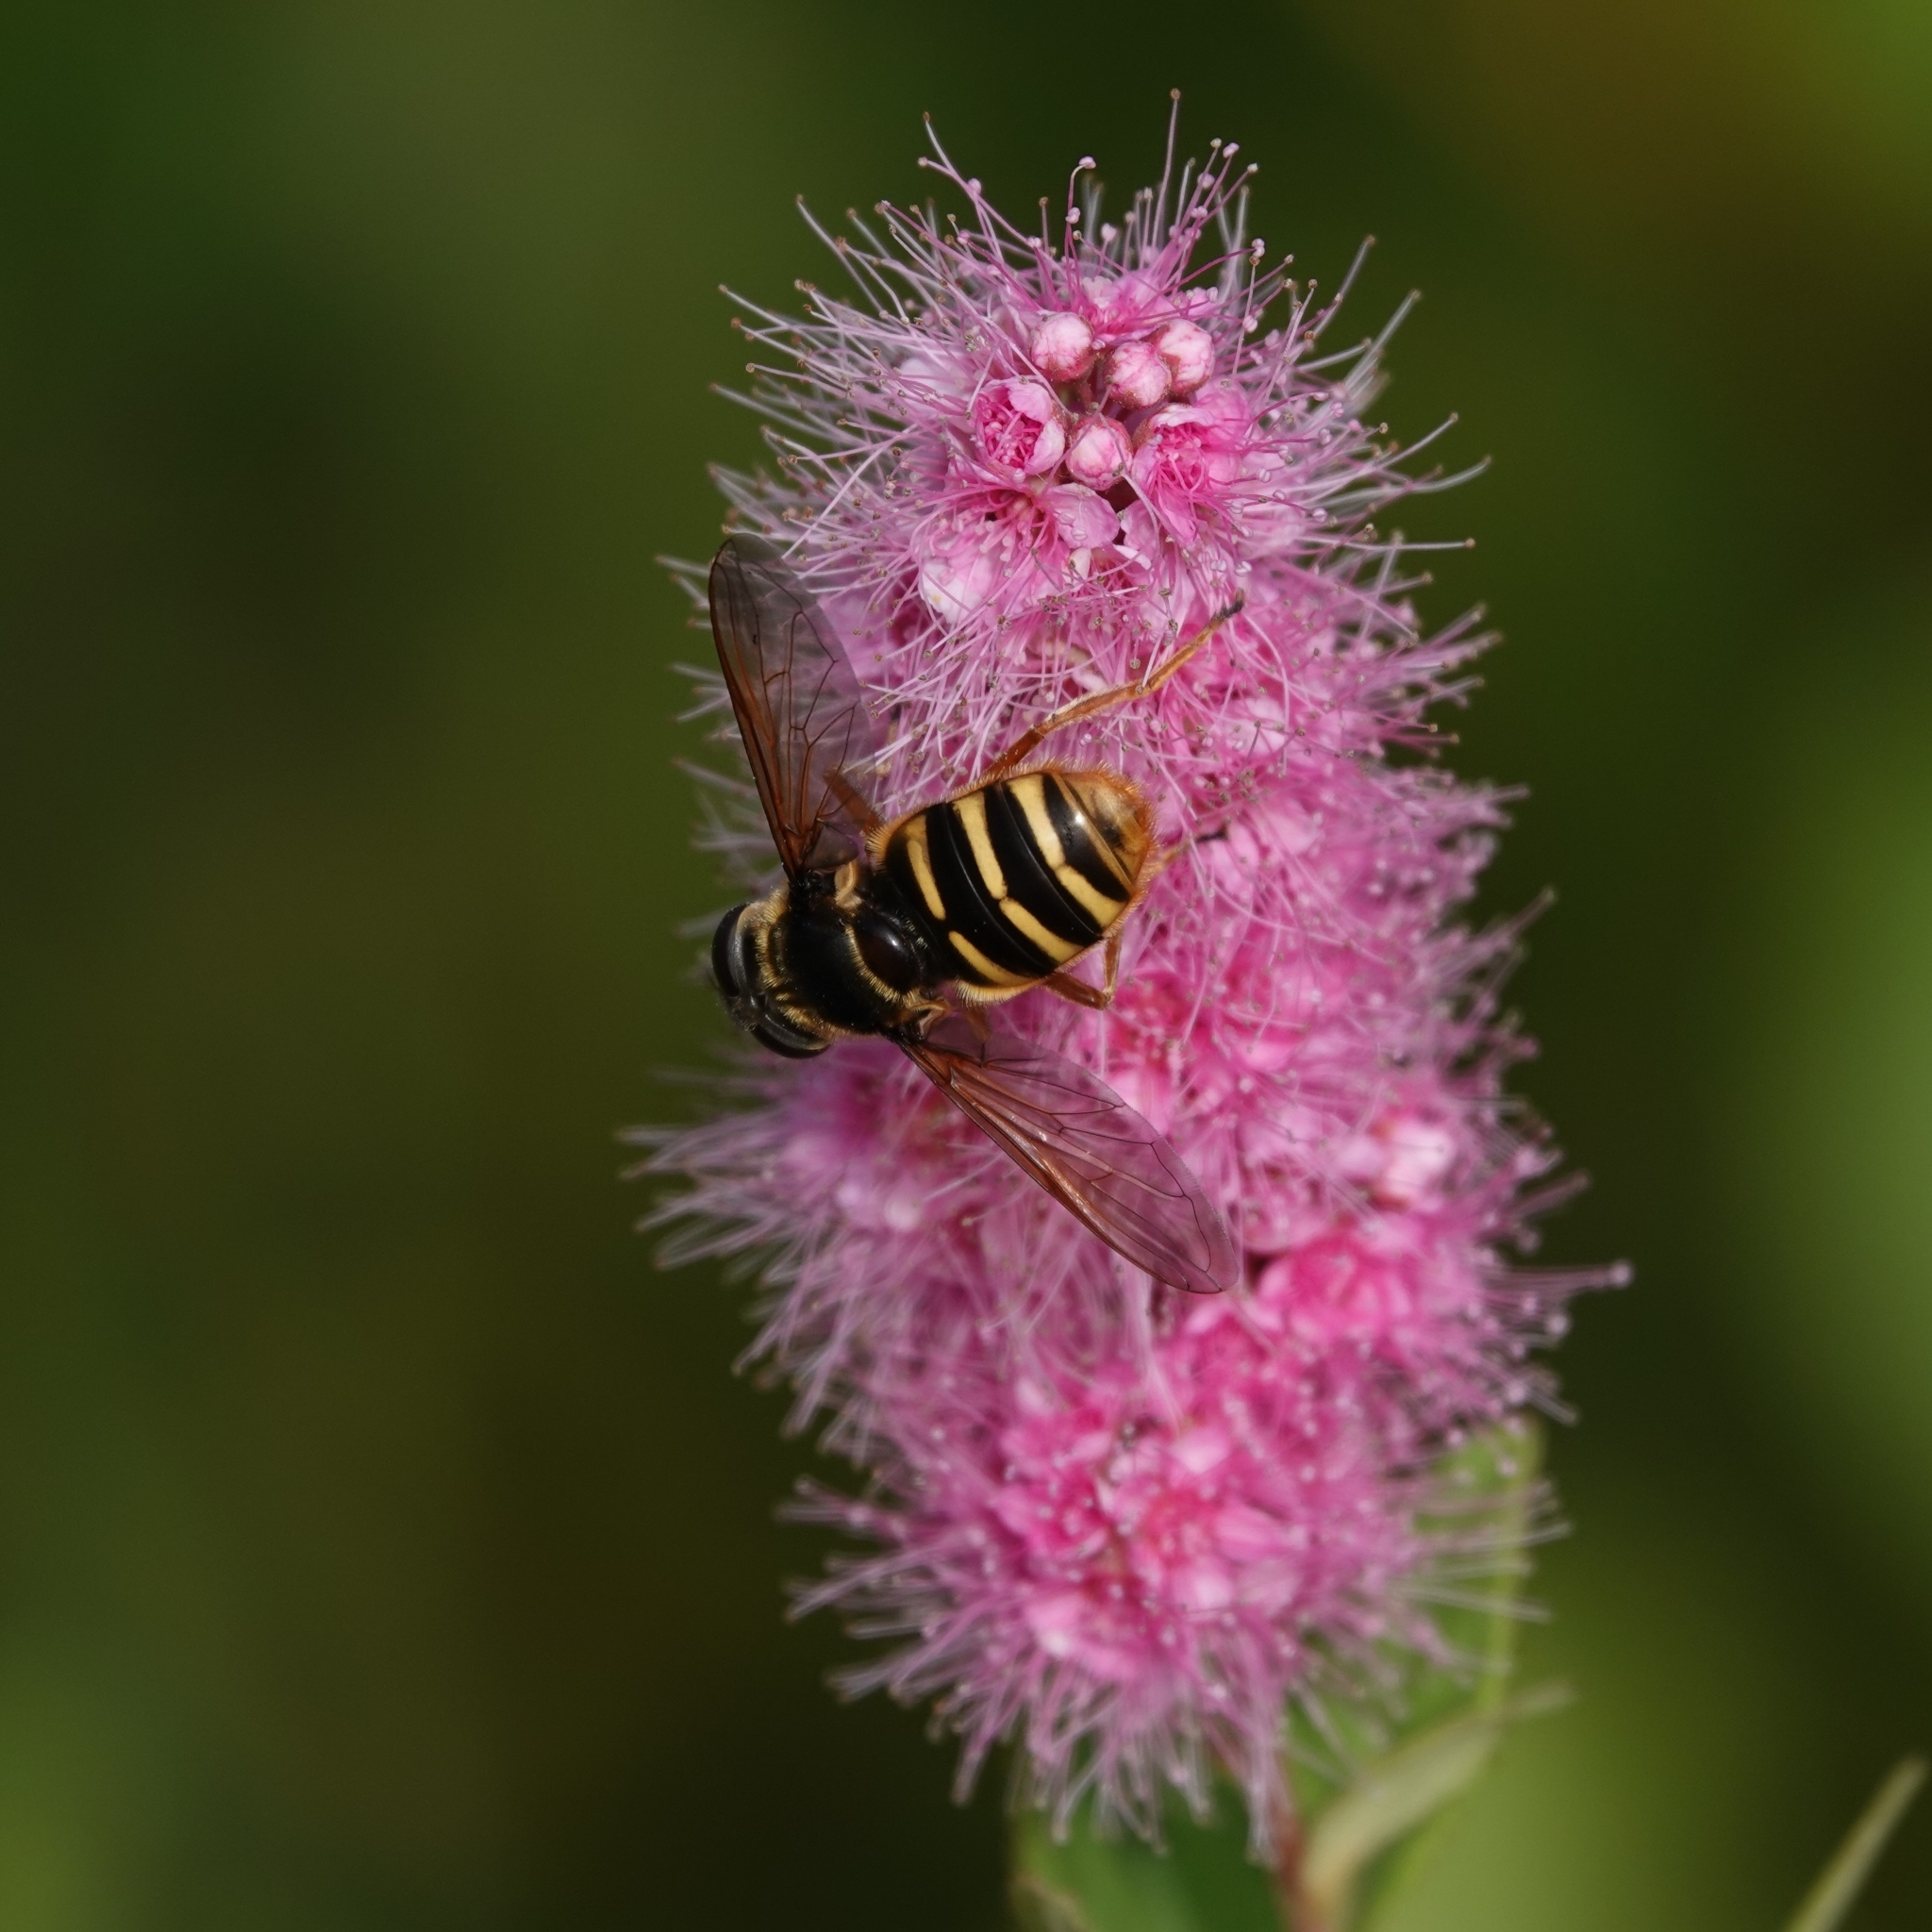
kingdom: Animalia
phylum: Arthropoda
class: Insecta
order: Diptera
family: Syrphidae
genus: Sericomyia
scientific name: Sericomyia silentis
